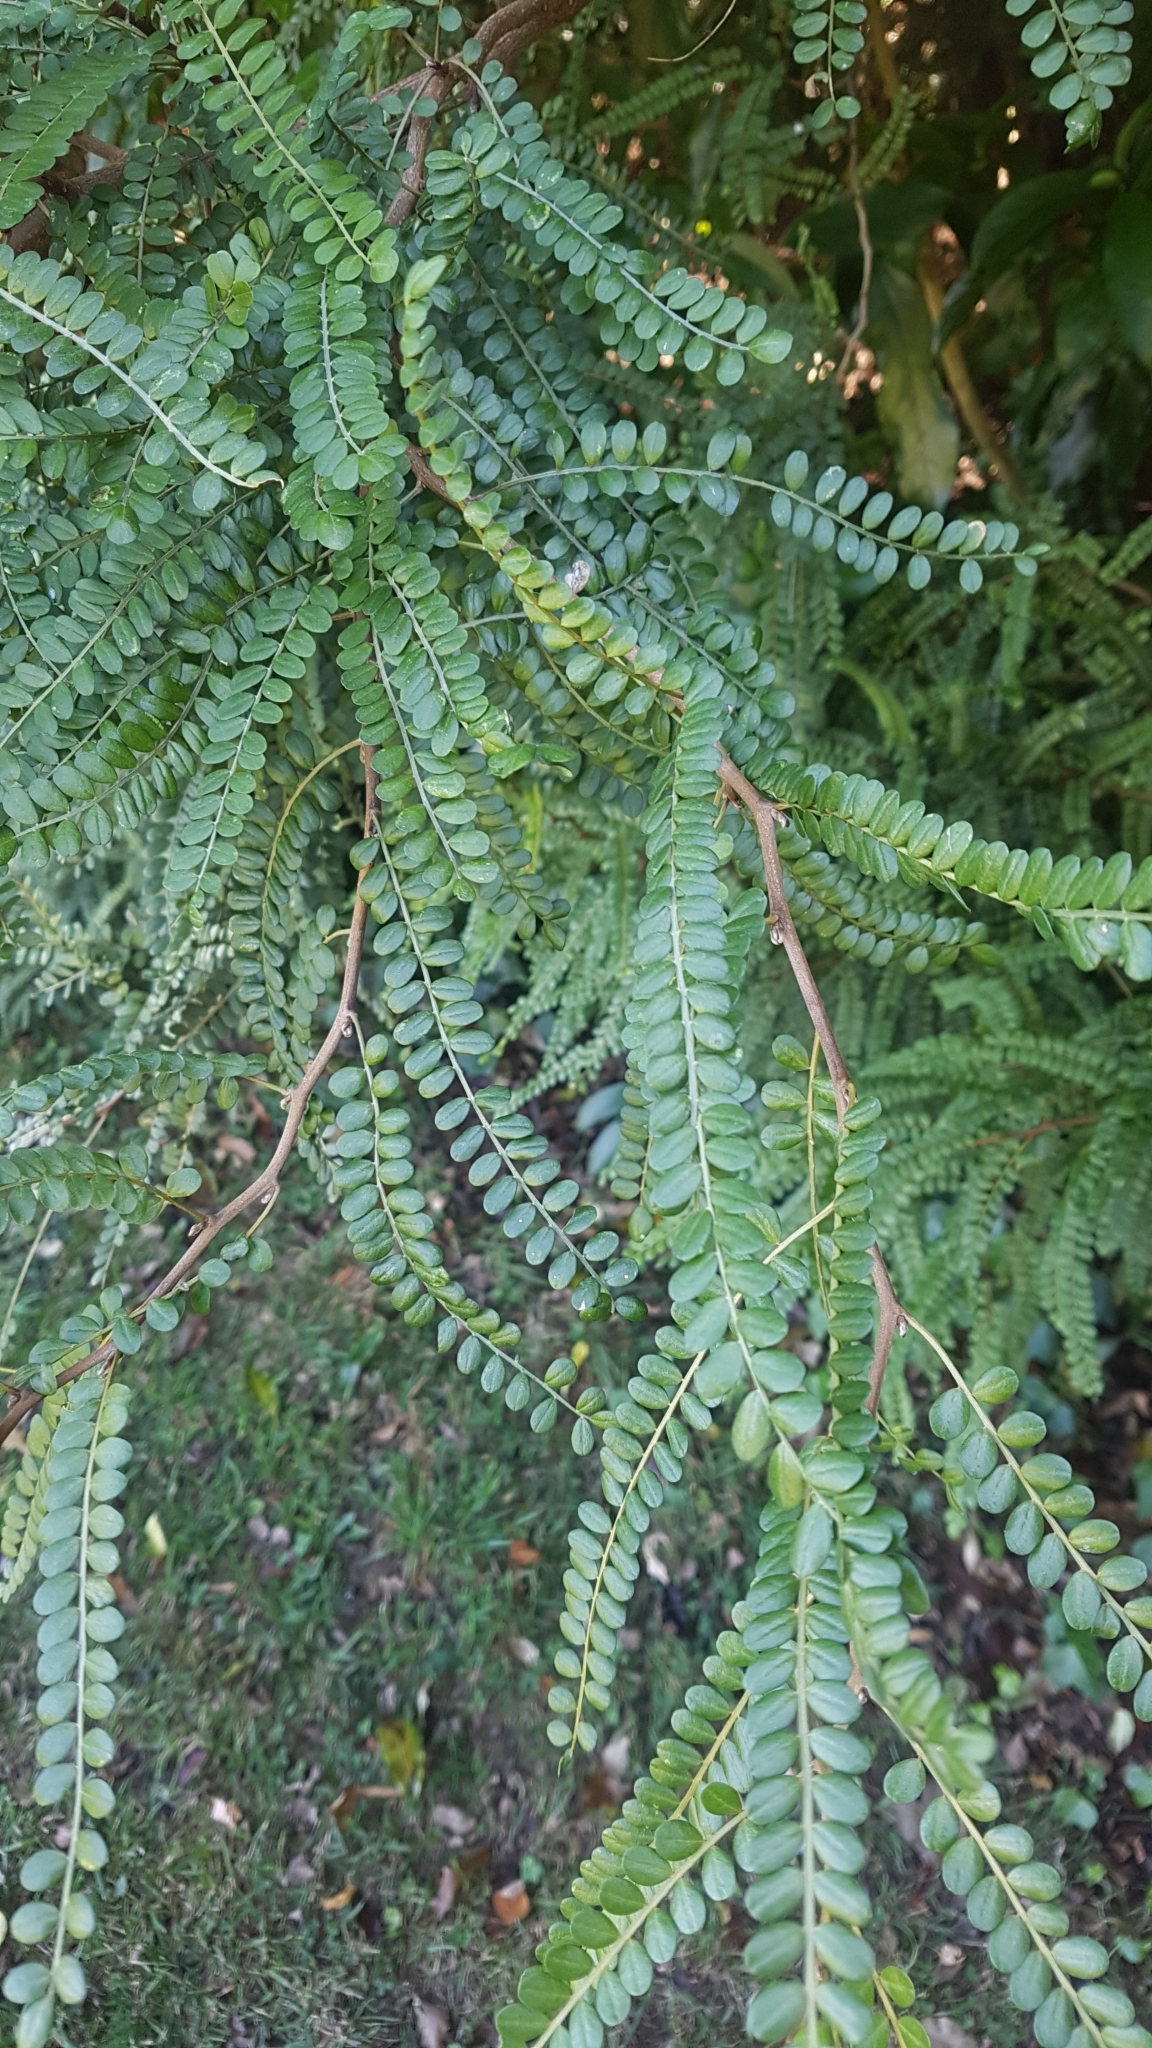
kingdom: Plantae
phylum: Tracheophyta
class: Magnoliopsida
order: Fabales
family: Fabaceae
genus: Sophora
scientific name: Sophora microphylla
